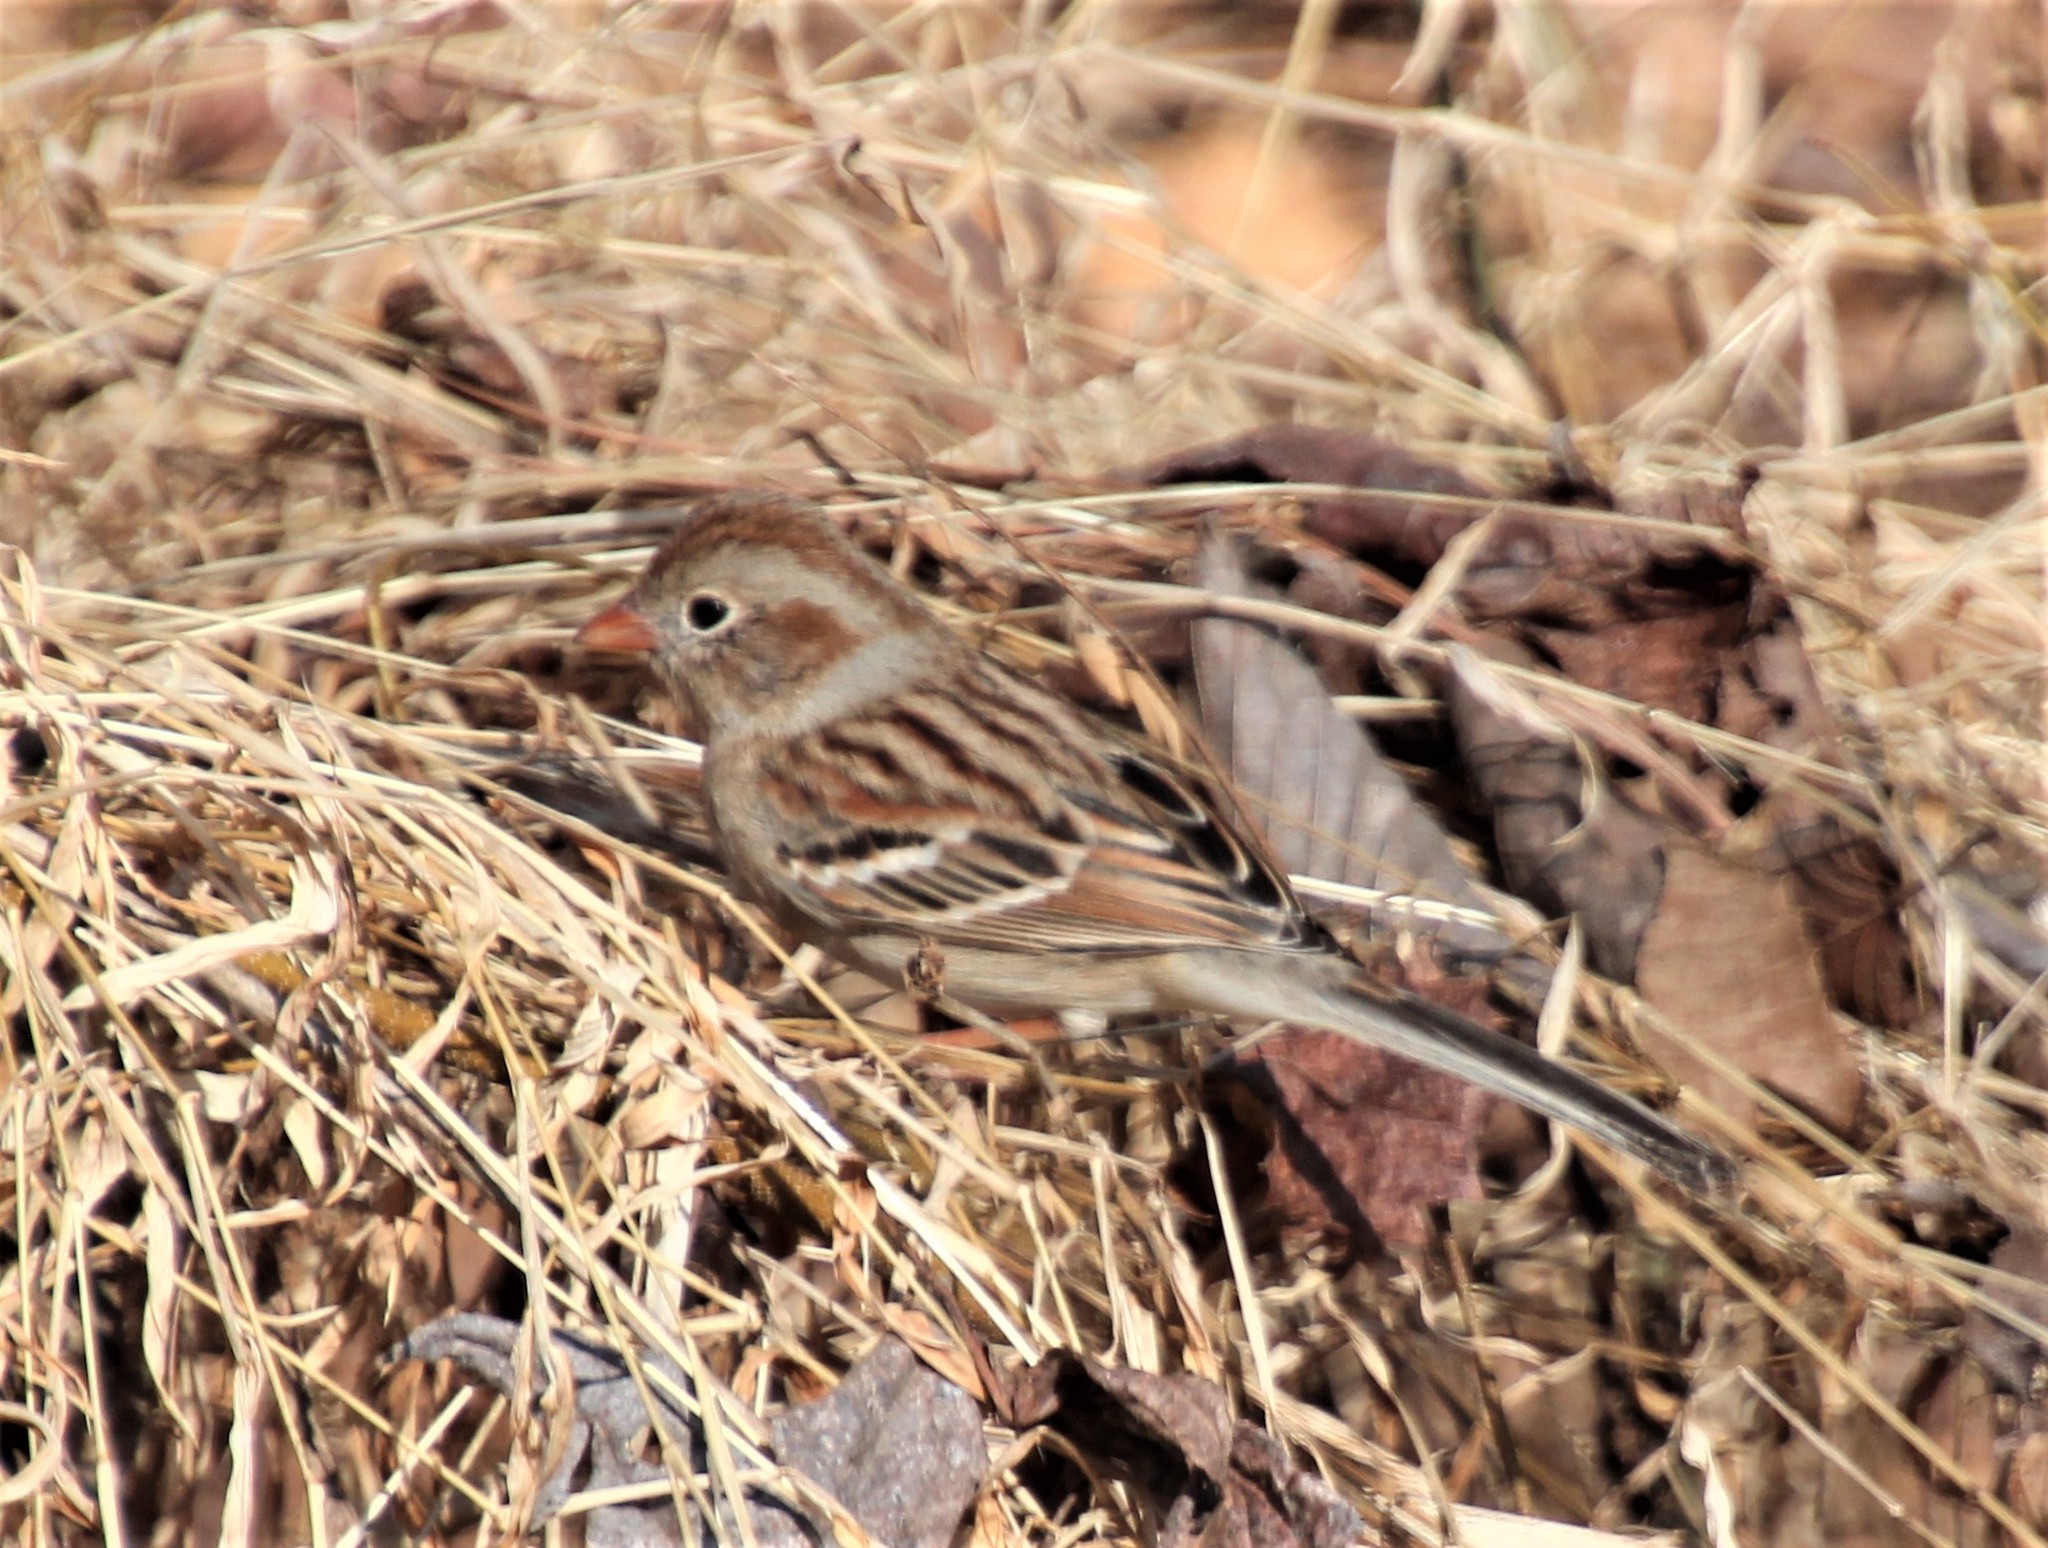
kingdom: Animalia
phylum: Chordata
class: Aves
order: Passeriformes
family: Passerellidae
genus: Spizella
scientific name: Spizella pusilla
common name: Field sparrow
